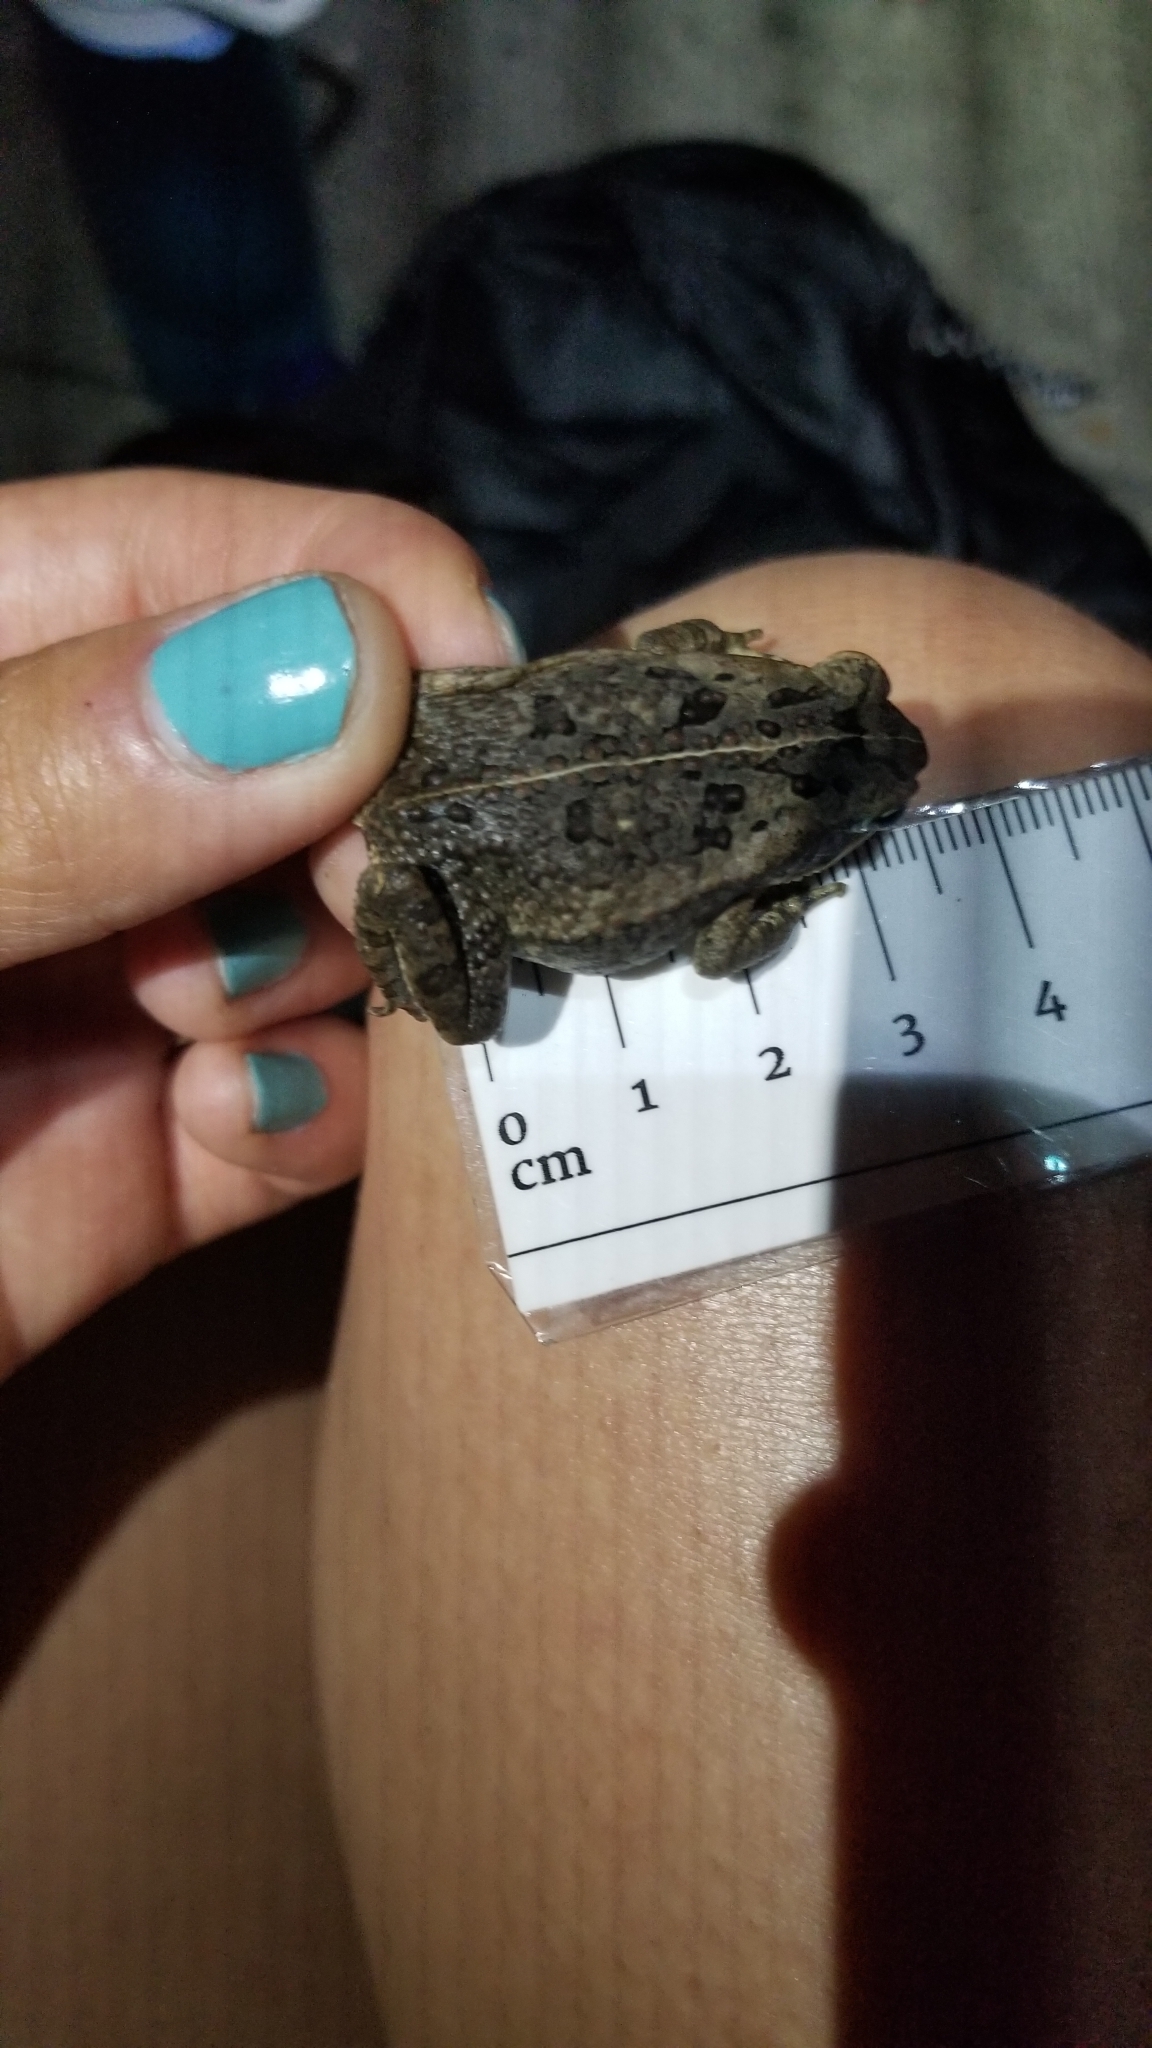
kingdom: Animalia
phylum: Chordata
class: Amphibia
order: Anura
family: Bufonidae
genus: Rhinella
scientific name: Rhinella horribilis
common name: Mesoamerican cane toad
